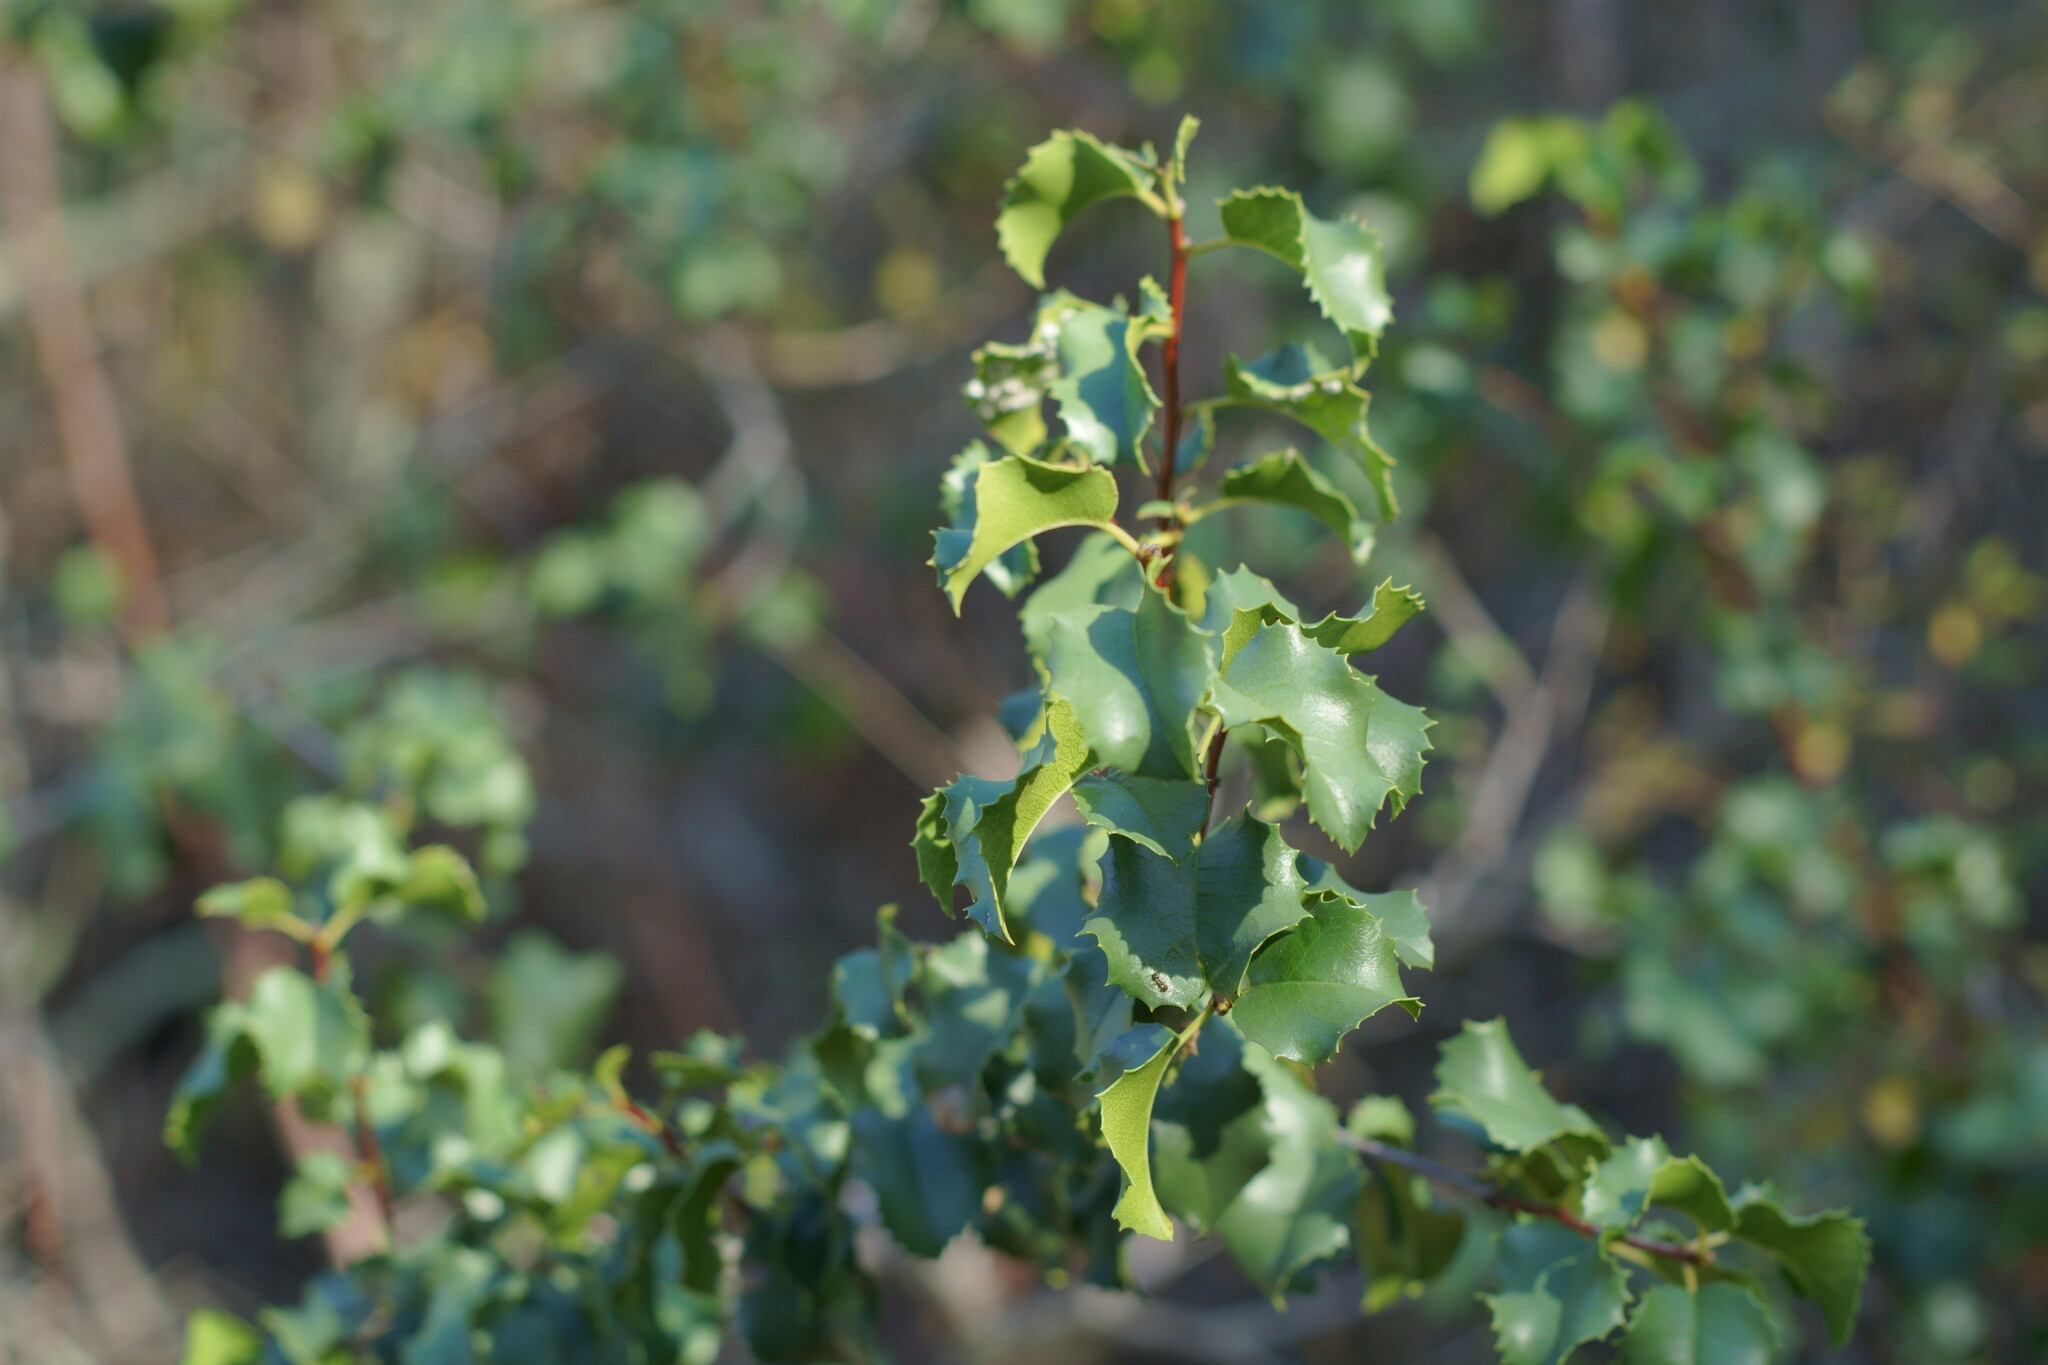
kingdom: Plantae
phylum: Tracheophyta
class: Magnoliopsida
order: Rosales
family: Rosaceae
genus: Prunus
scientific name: Prunus ilicifolia
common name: Hollyleaf cherry
